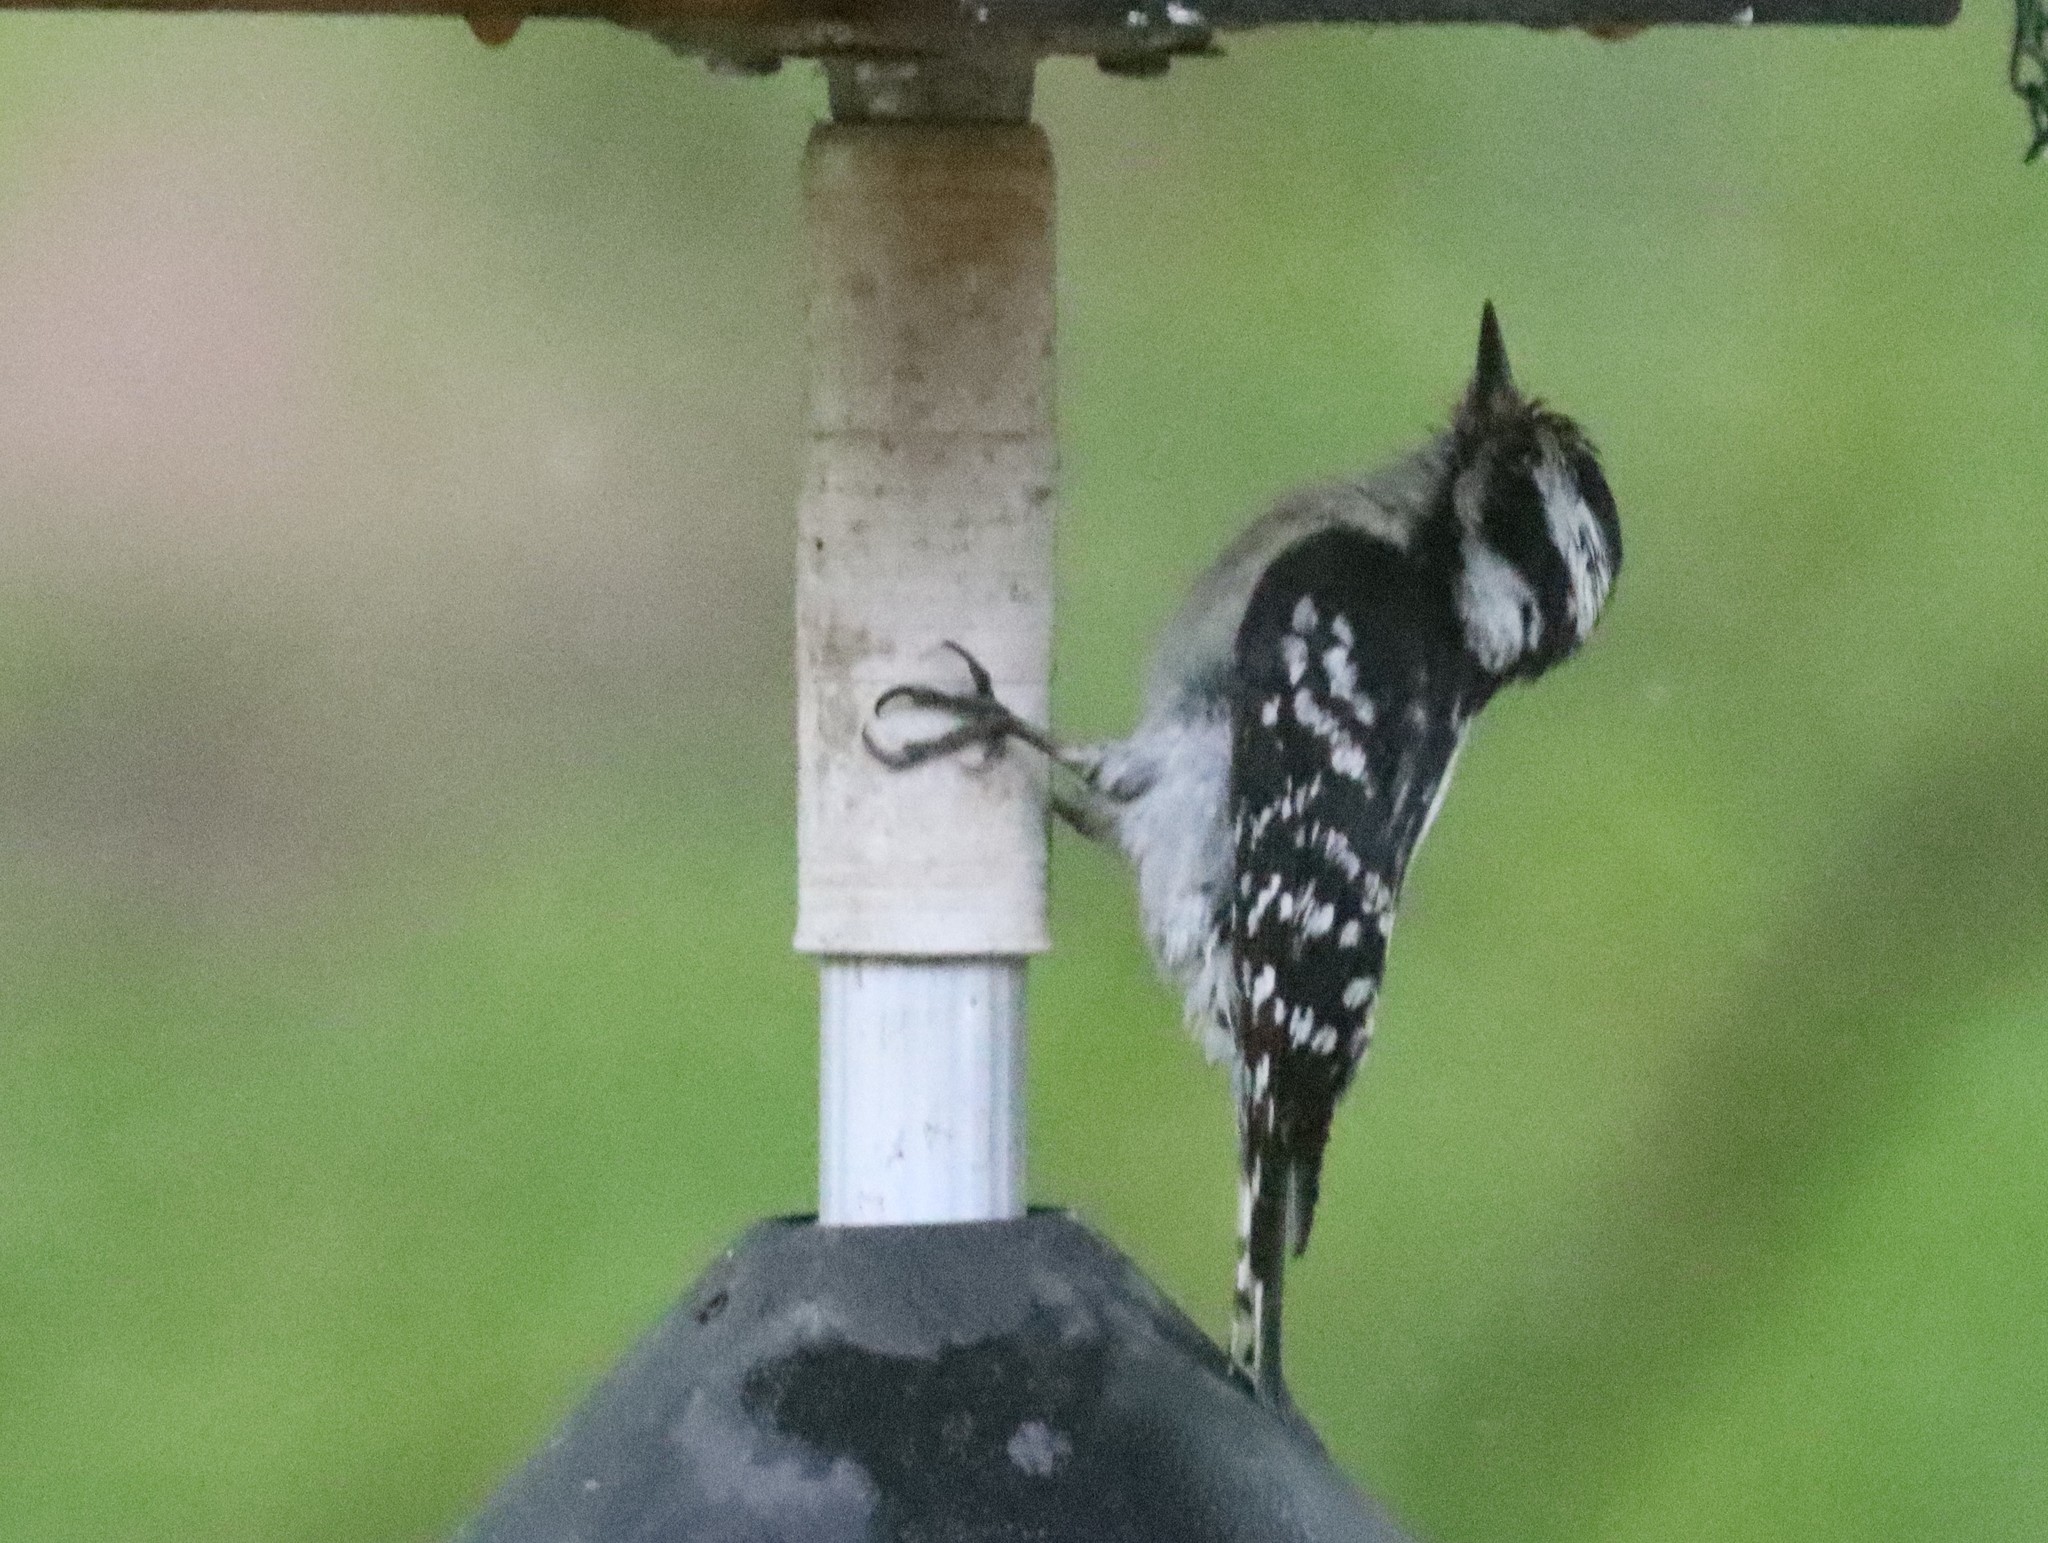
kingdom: Animalia
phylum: Chordata
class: Aves
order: Piciformes
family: Picidae
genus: Dryobates
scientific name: Dryobates pubescens
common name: Downy woodpecker
